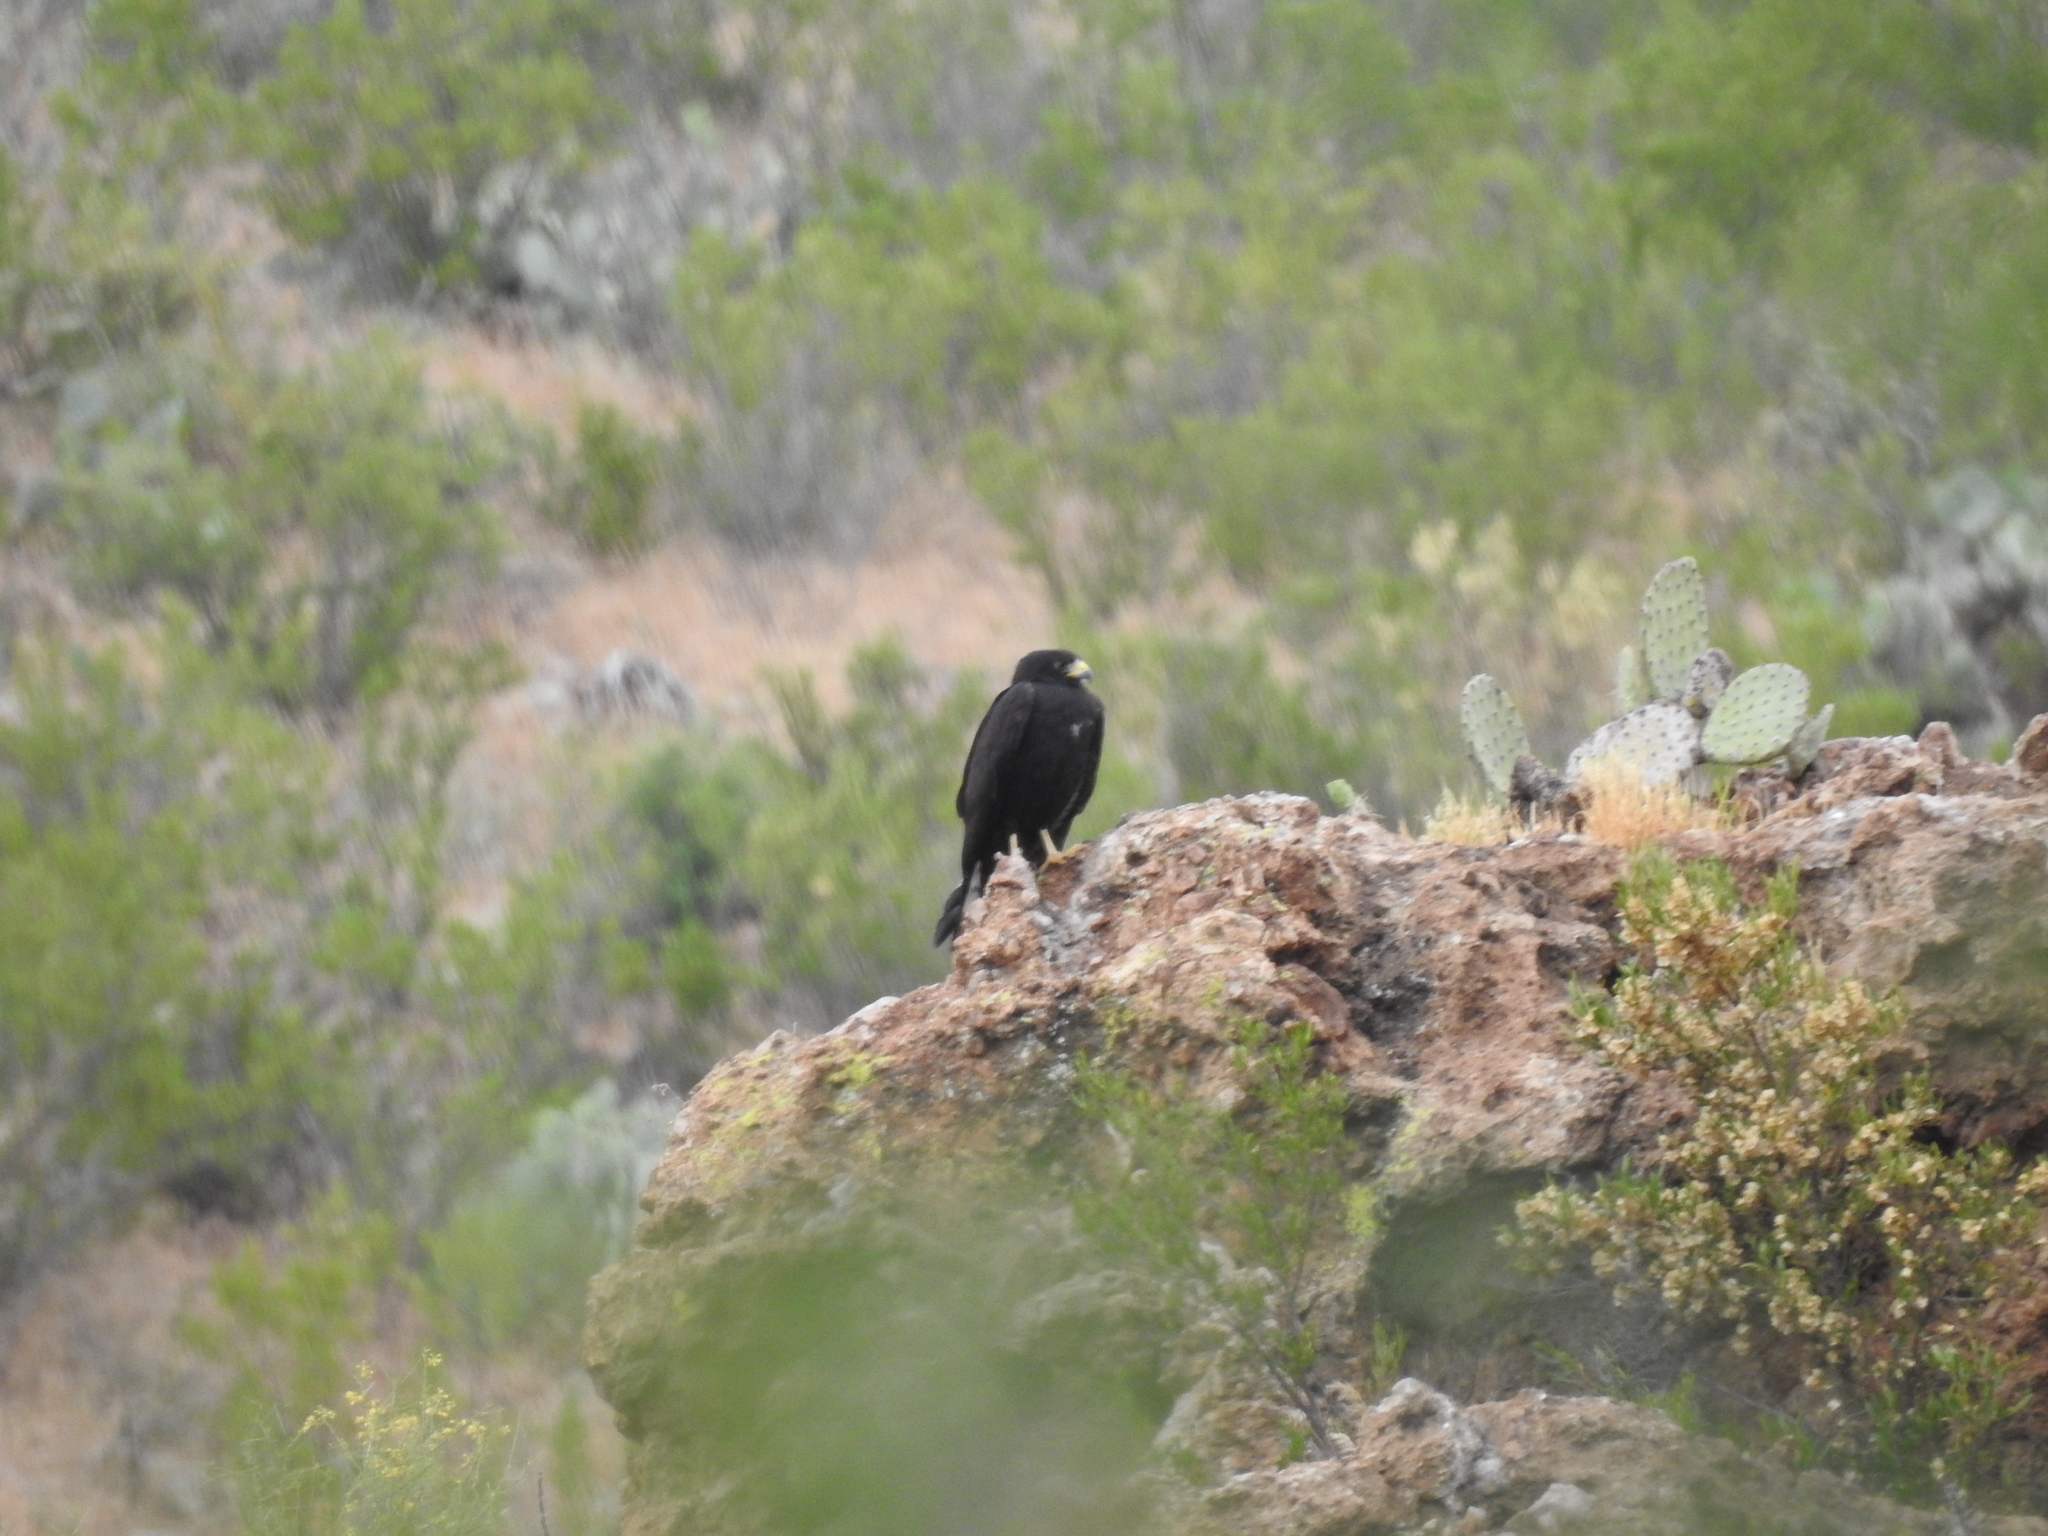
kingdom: Animalia
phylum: Chordata
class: Aves
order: Accipitriformes
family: Accipitridae
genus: Buteo
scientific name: Buteo albonotatus
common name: Zone-tailed hawk
